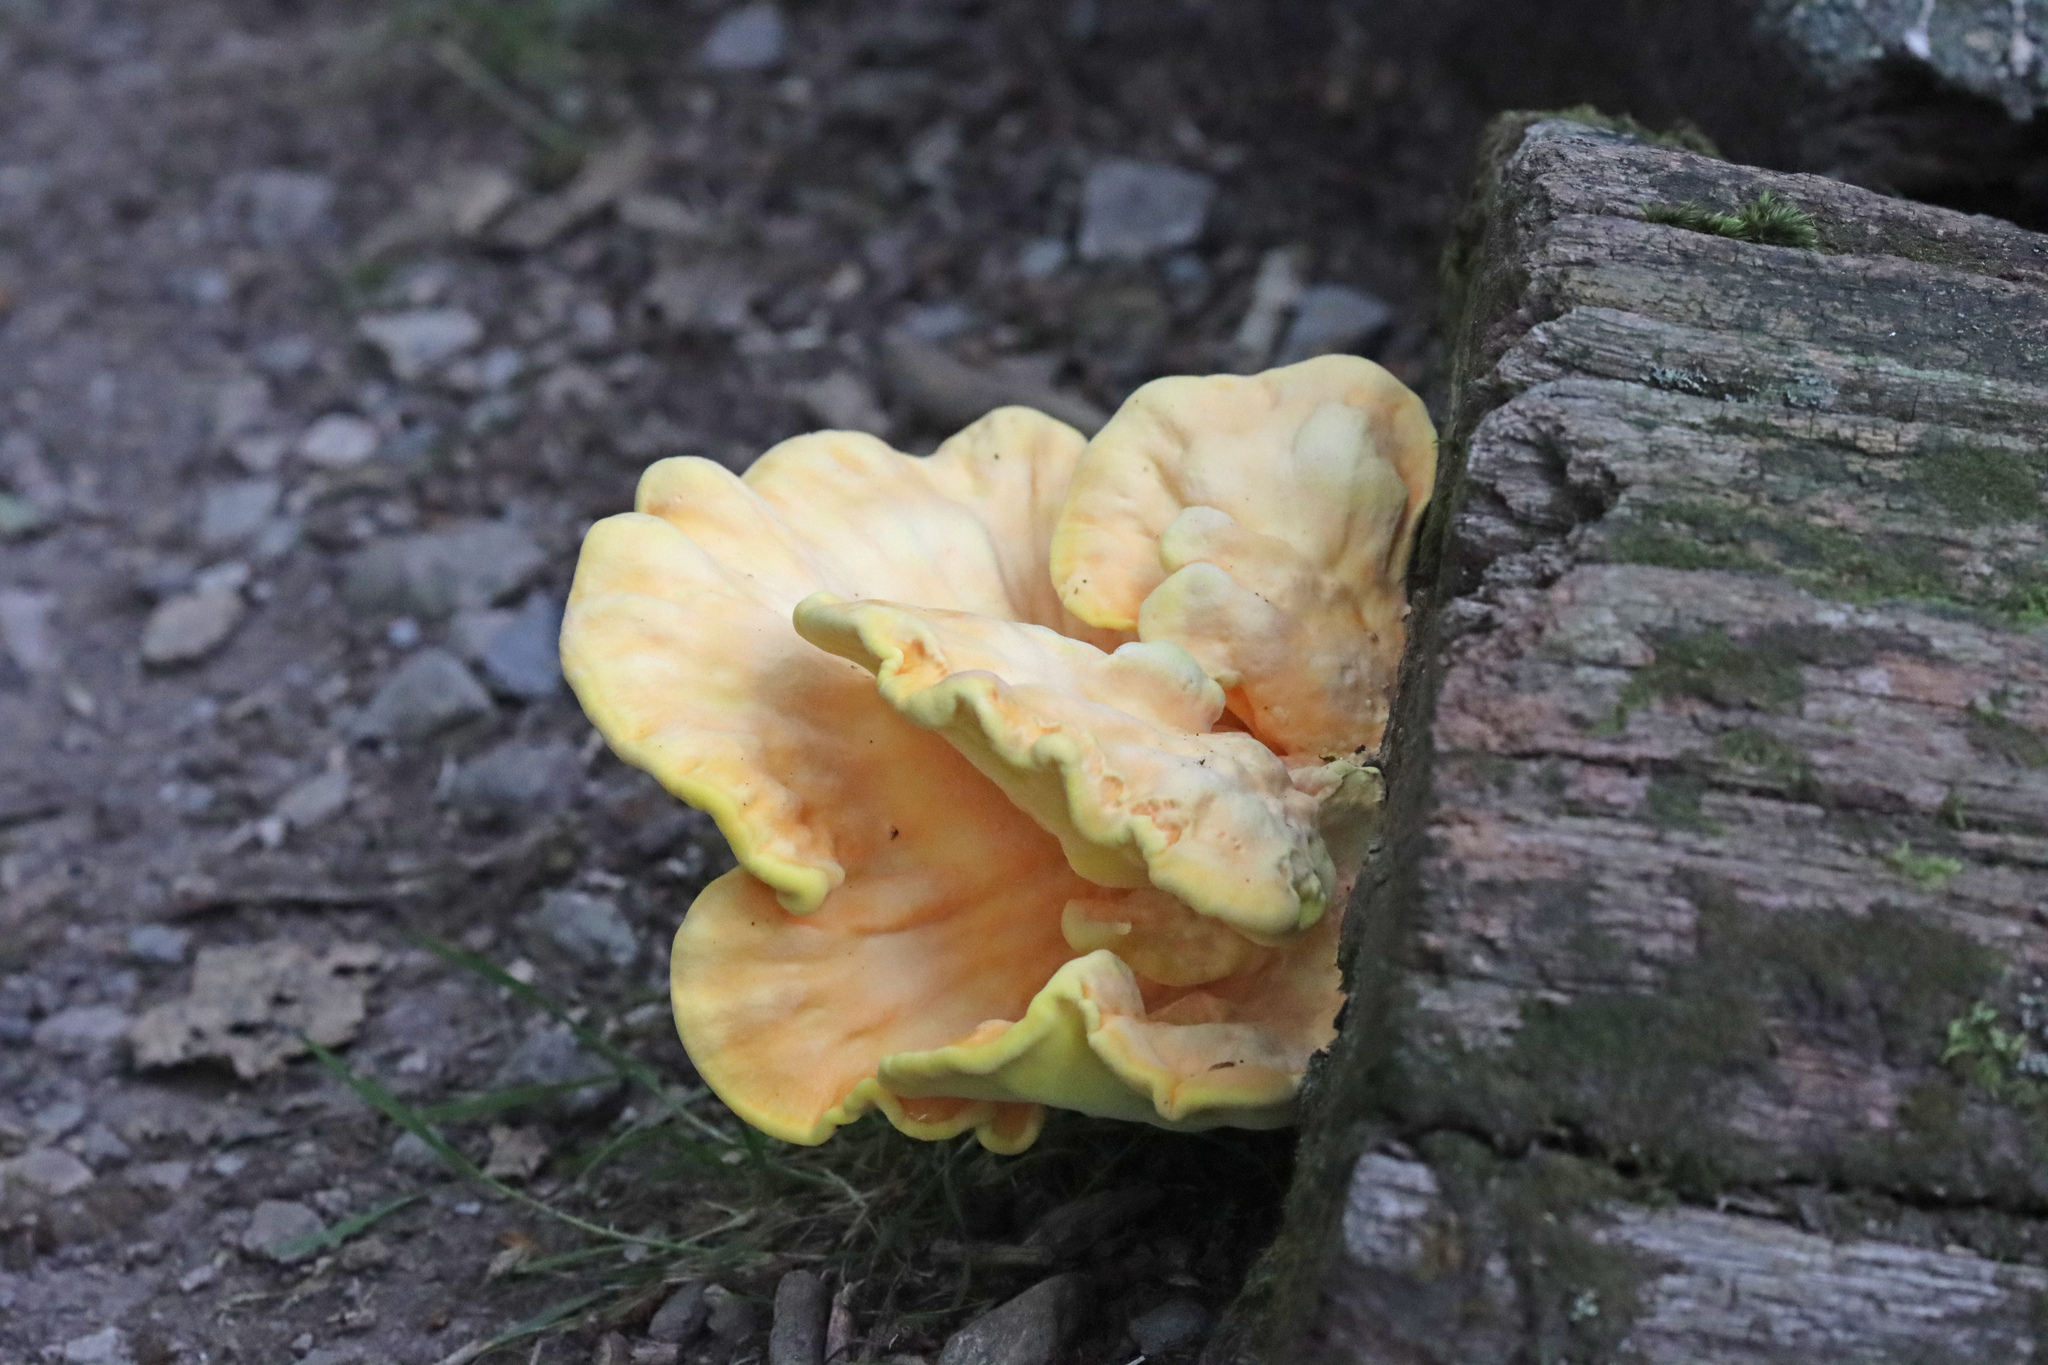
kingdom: Fungi
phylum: Basidiomycota
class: Agaricomycetes
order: Polyporales
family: Laetiporaceae
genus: Laetiporus
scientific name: Laetiporus sulphureus
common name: Chicken of the woods
